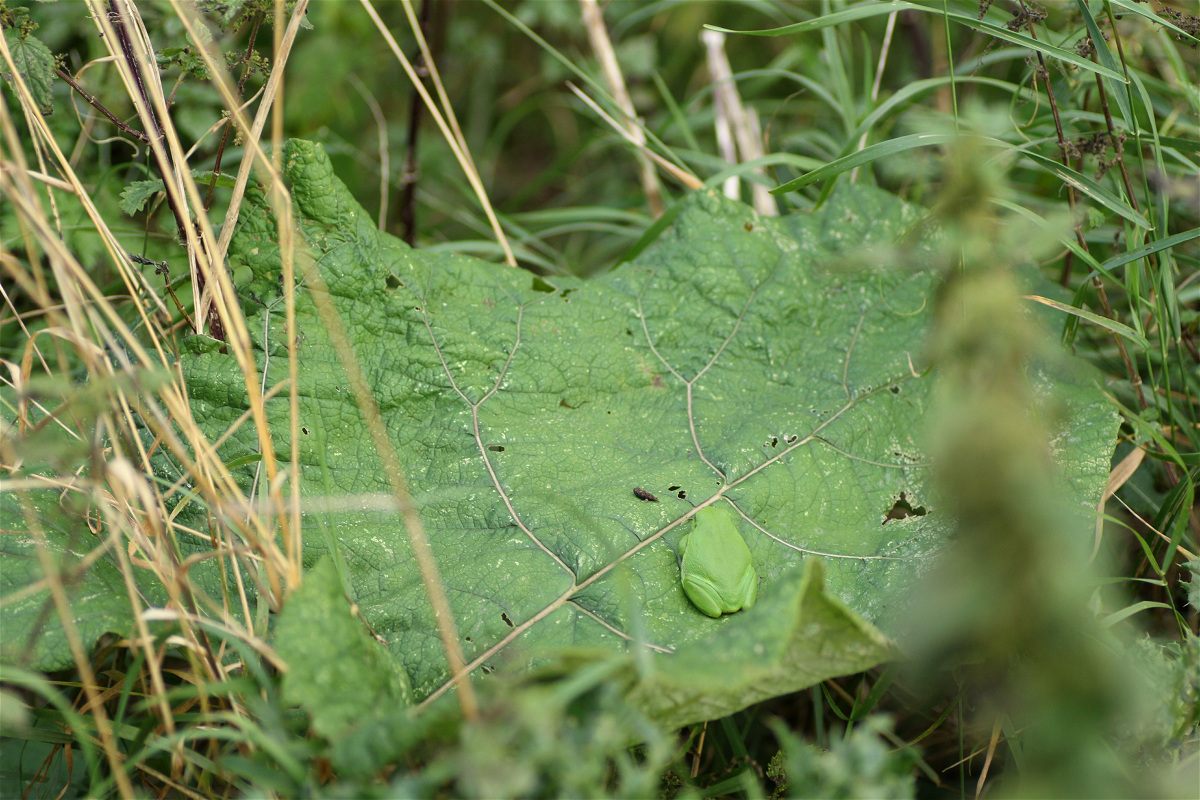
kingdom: Animalia
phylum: Chordata
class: Amphibia
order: Anura
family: Hylidae
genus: Hyla
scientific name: Hyla arborea
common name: Common tree frog
